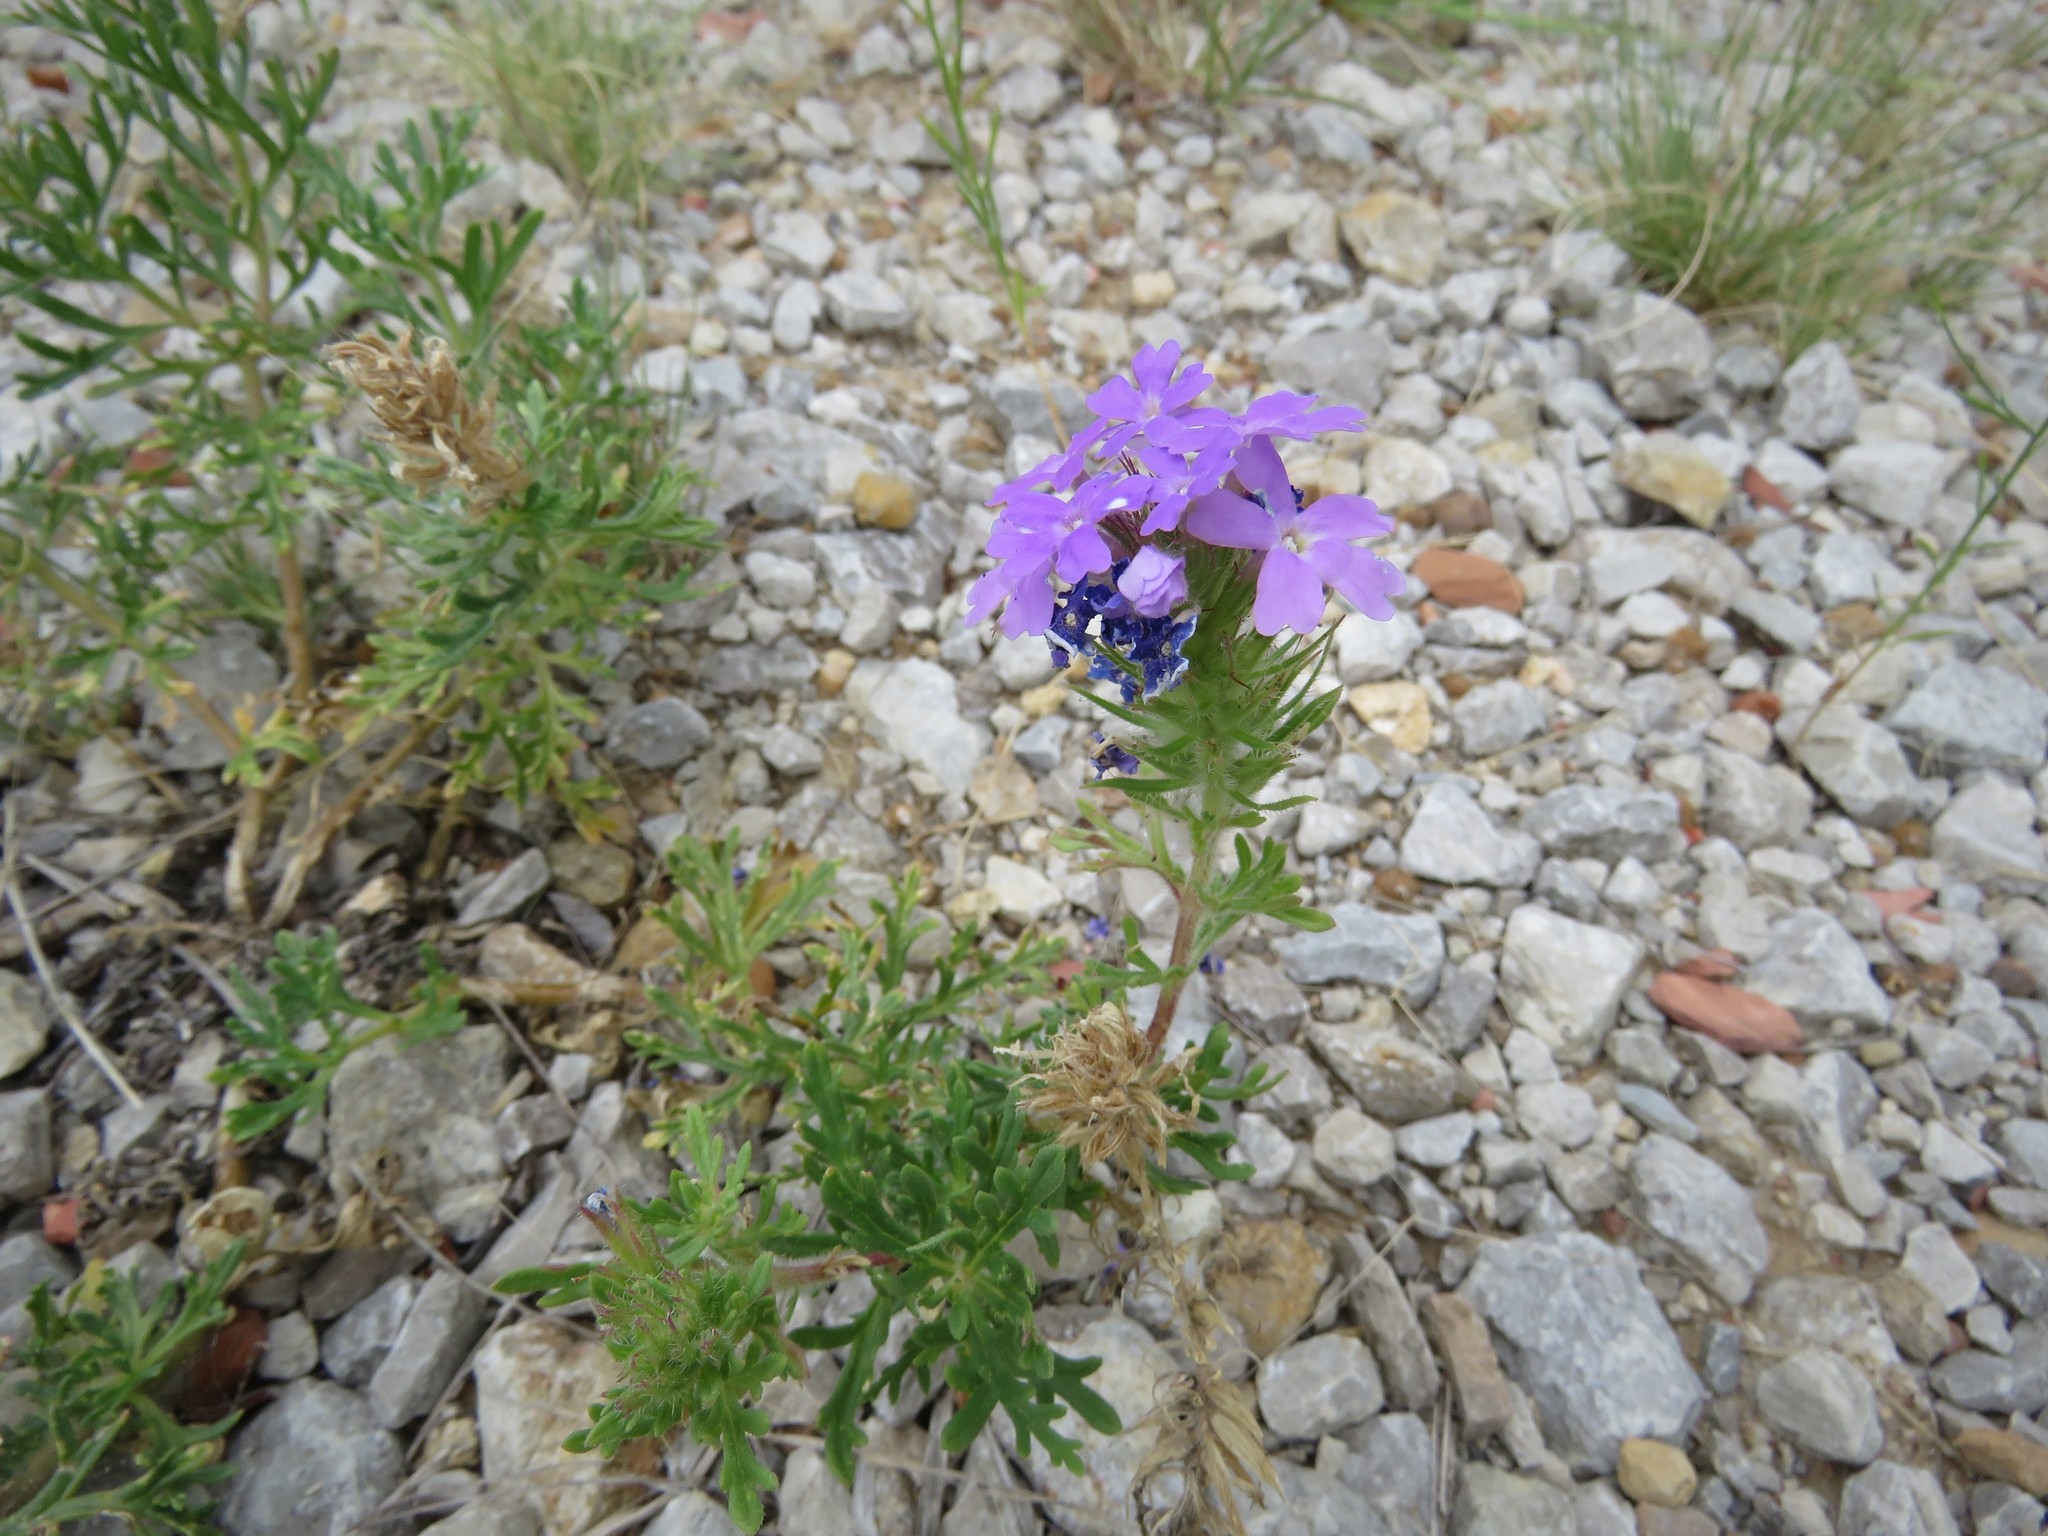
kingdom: Plantae
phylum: Tracheophyta
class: Magnoliopsida
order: Lamiales
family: Verbenaceae
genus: Verbena
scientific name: Verbena bipinnatifida
